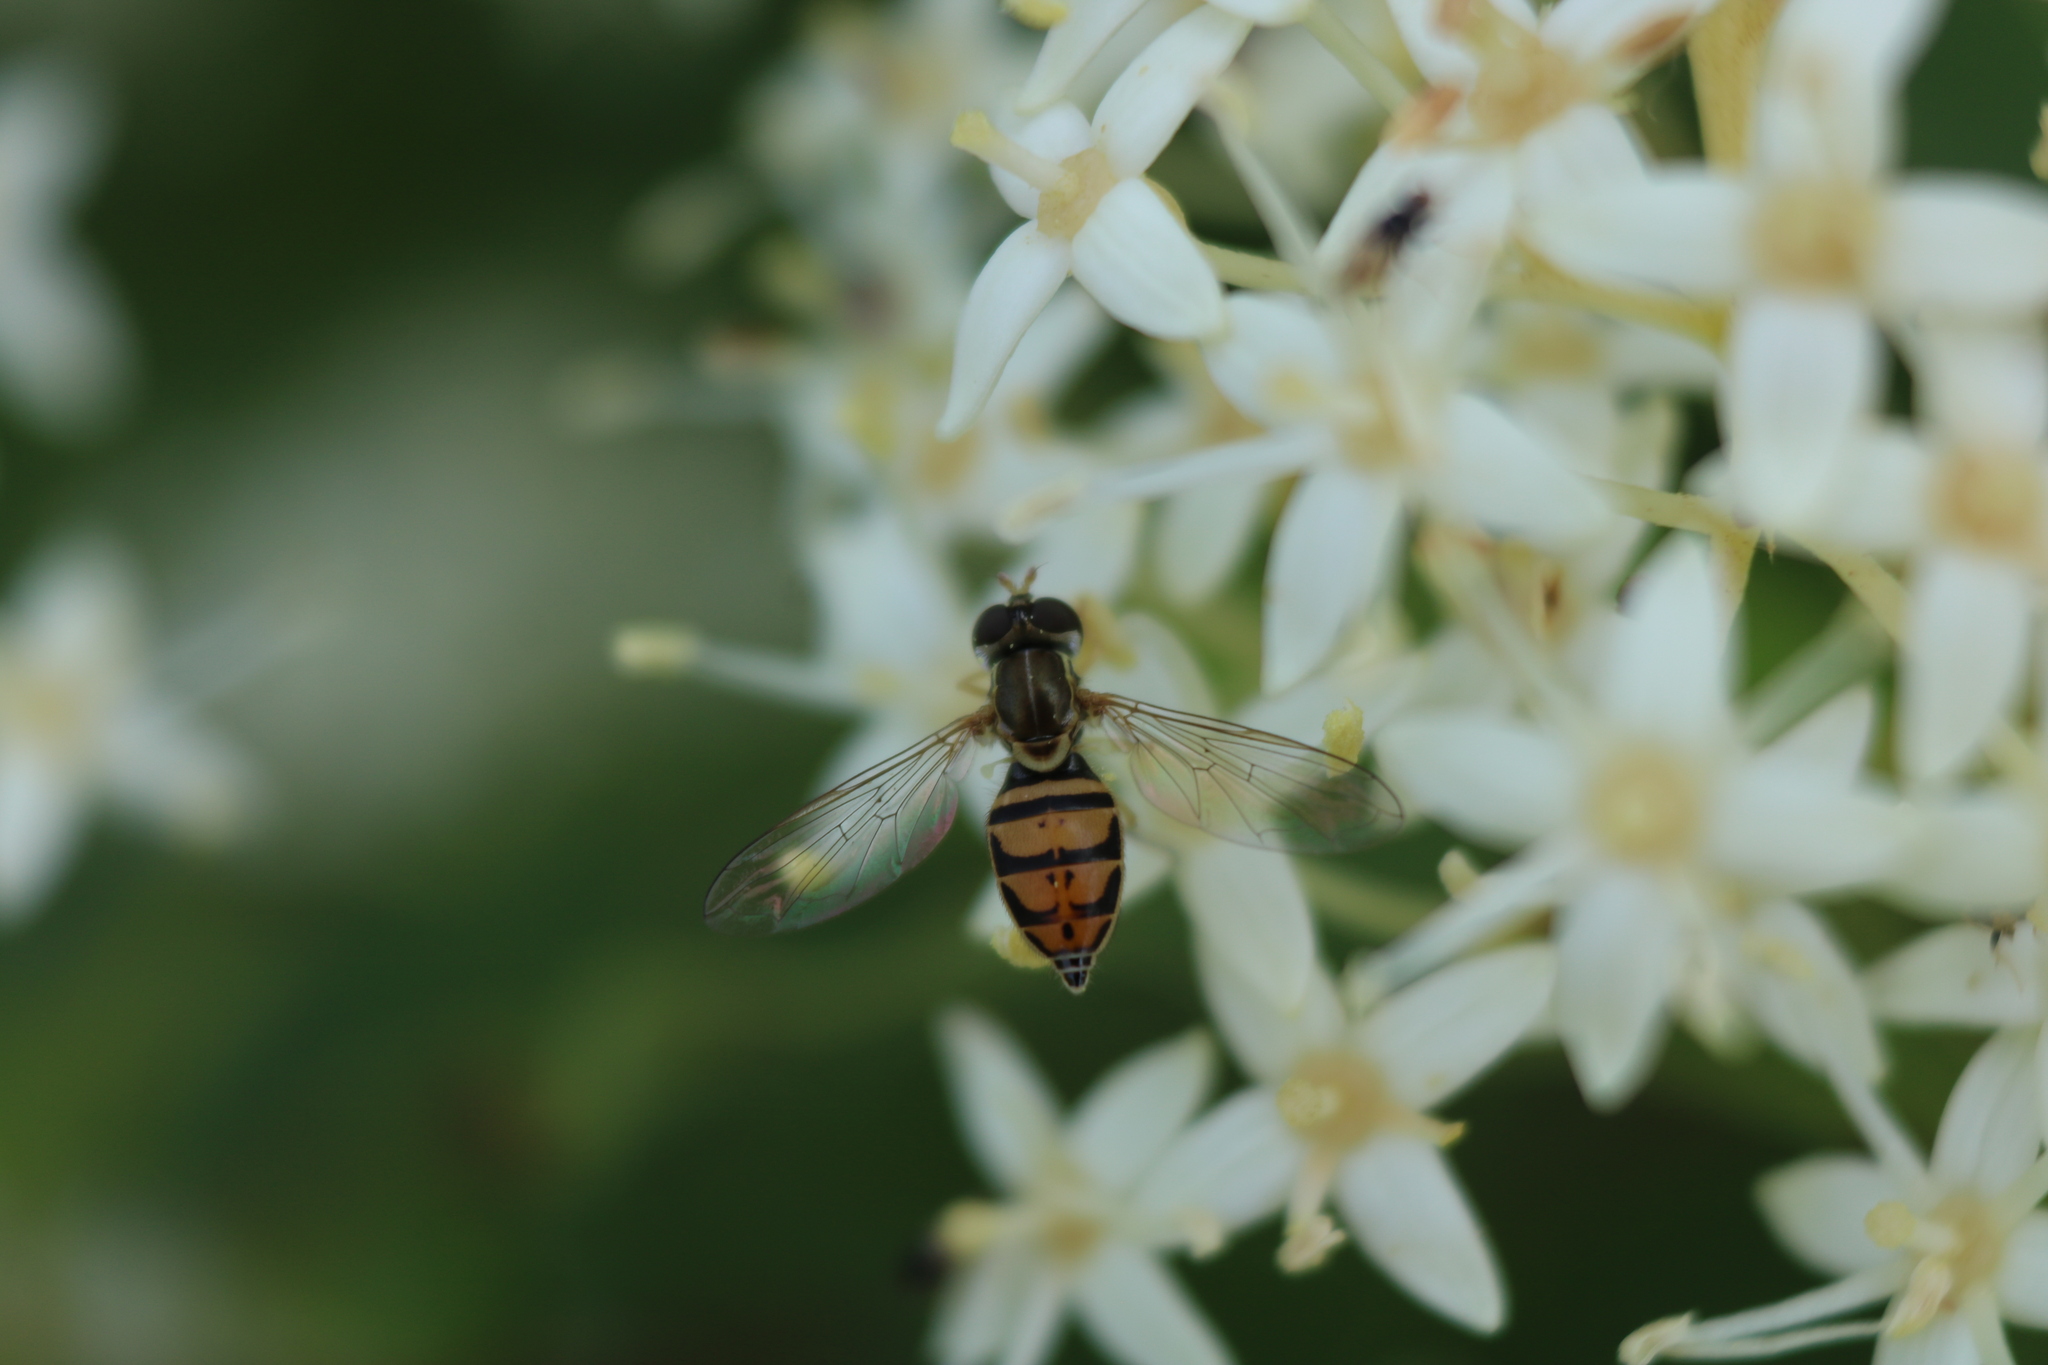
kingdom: Animalia
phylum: Arthropoda
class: Insecta
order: Diptera
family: Syrphidae
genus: Toxomerus
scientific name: Toxomerus marginatus
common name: Syrphid fly
